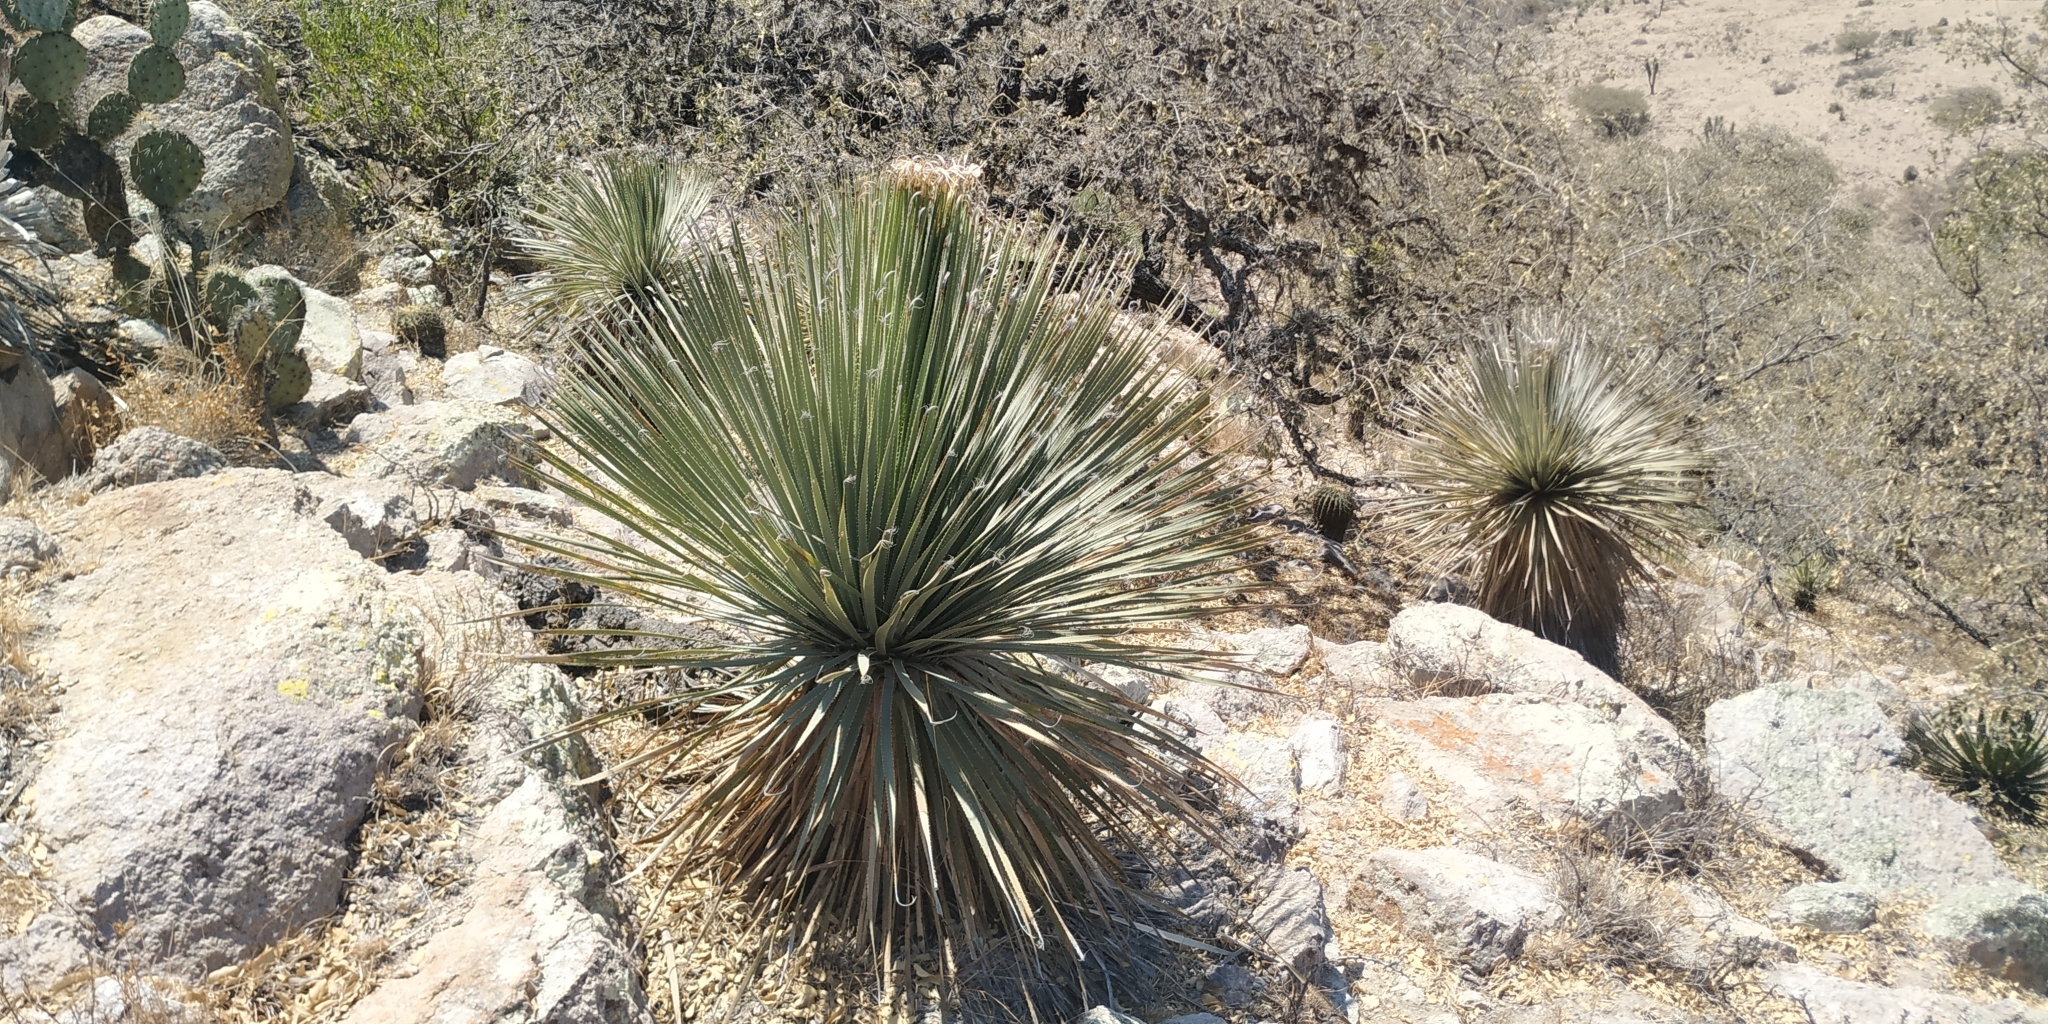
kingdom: Plantae
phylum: Tracheophyta
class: Liliopsida
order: Asparagales
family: Asparagaceae
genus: Dasylirion
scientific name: Dasylirion parryanum
